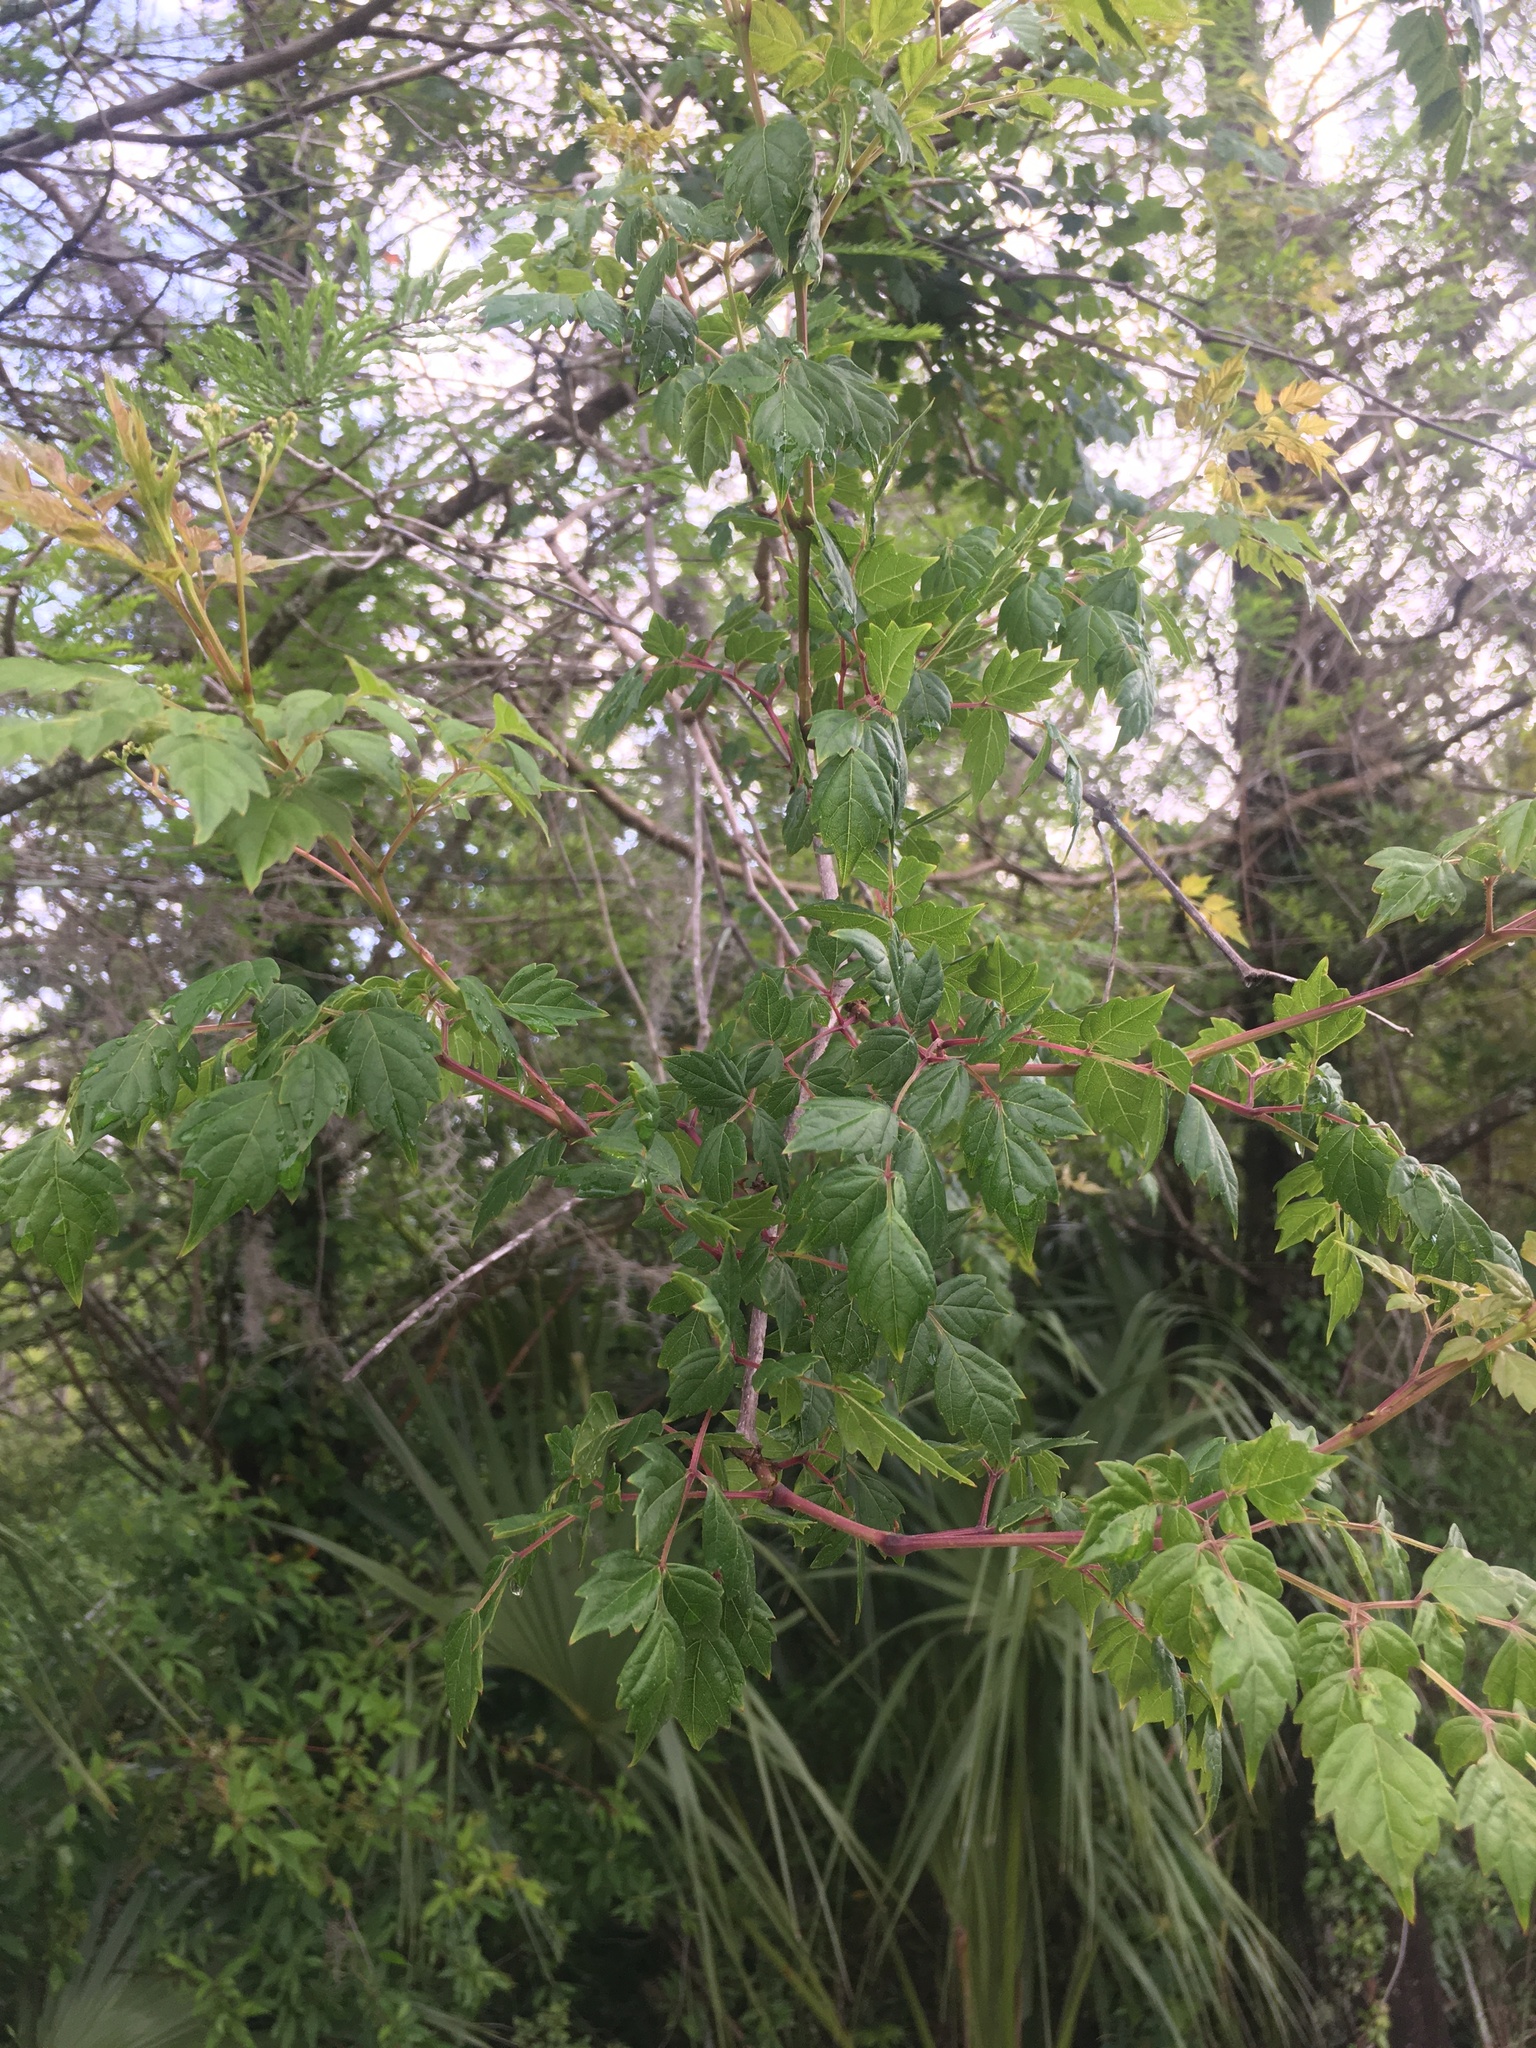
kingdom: Plantae
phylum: Tracheophyta
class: Magnoliopsida
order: Vitales
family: Vitaceae
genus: Nekemias
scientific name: Nekemias arborea
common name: Peppervine
